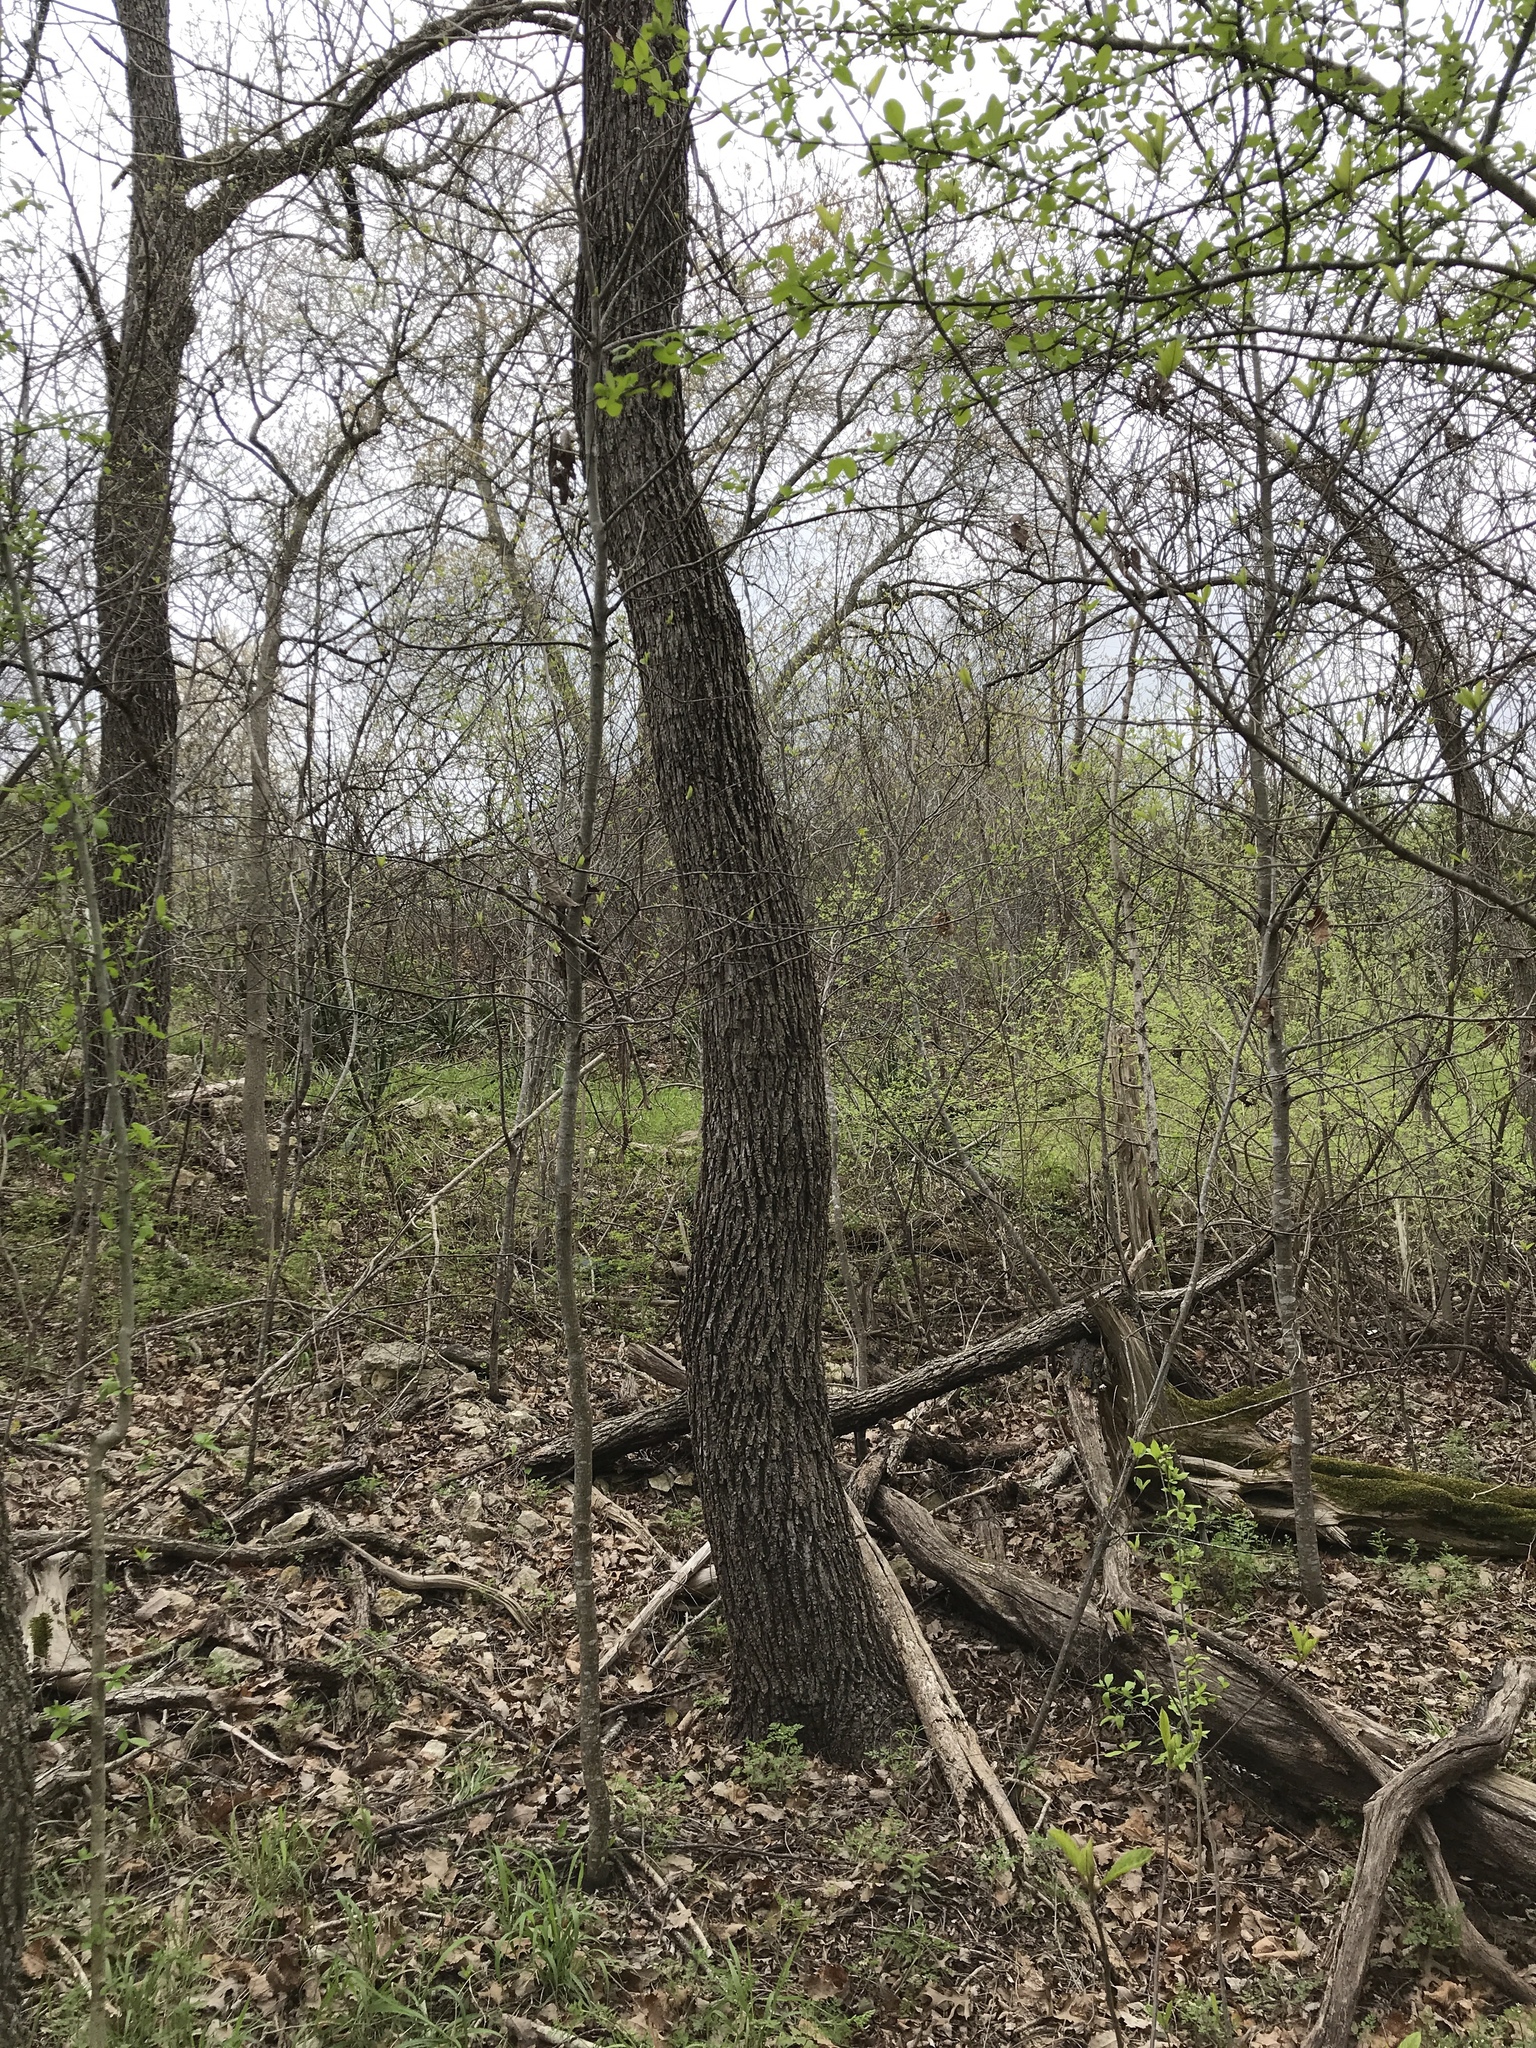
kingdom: Plantae
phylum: Tracheophyta
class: Magnoliopsida
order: Fagales
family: Juglandaceae
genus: Juglans
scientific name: Juglans nigra
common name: Black walnut
